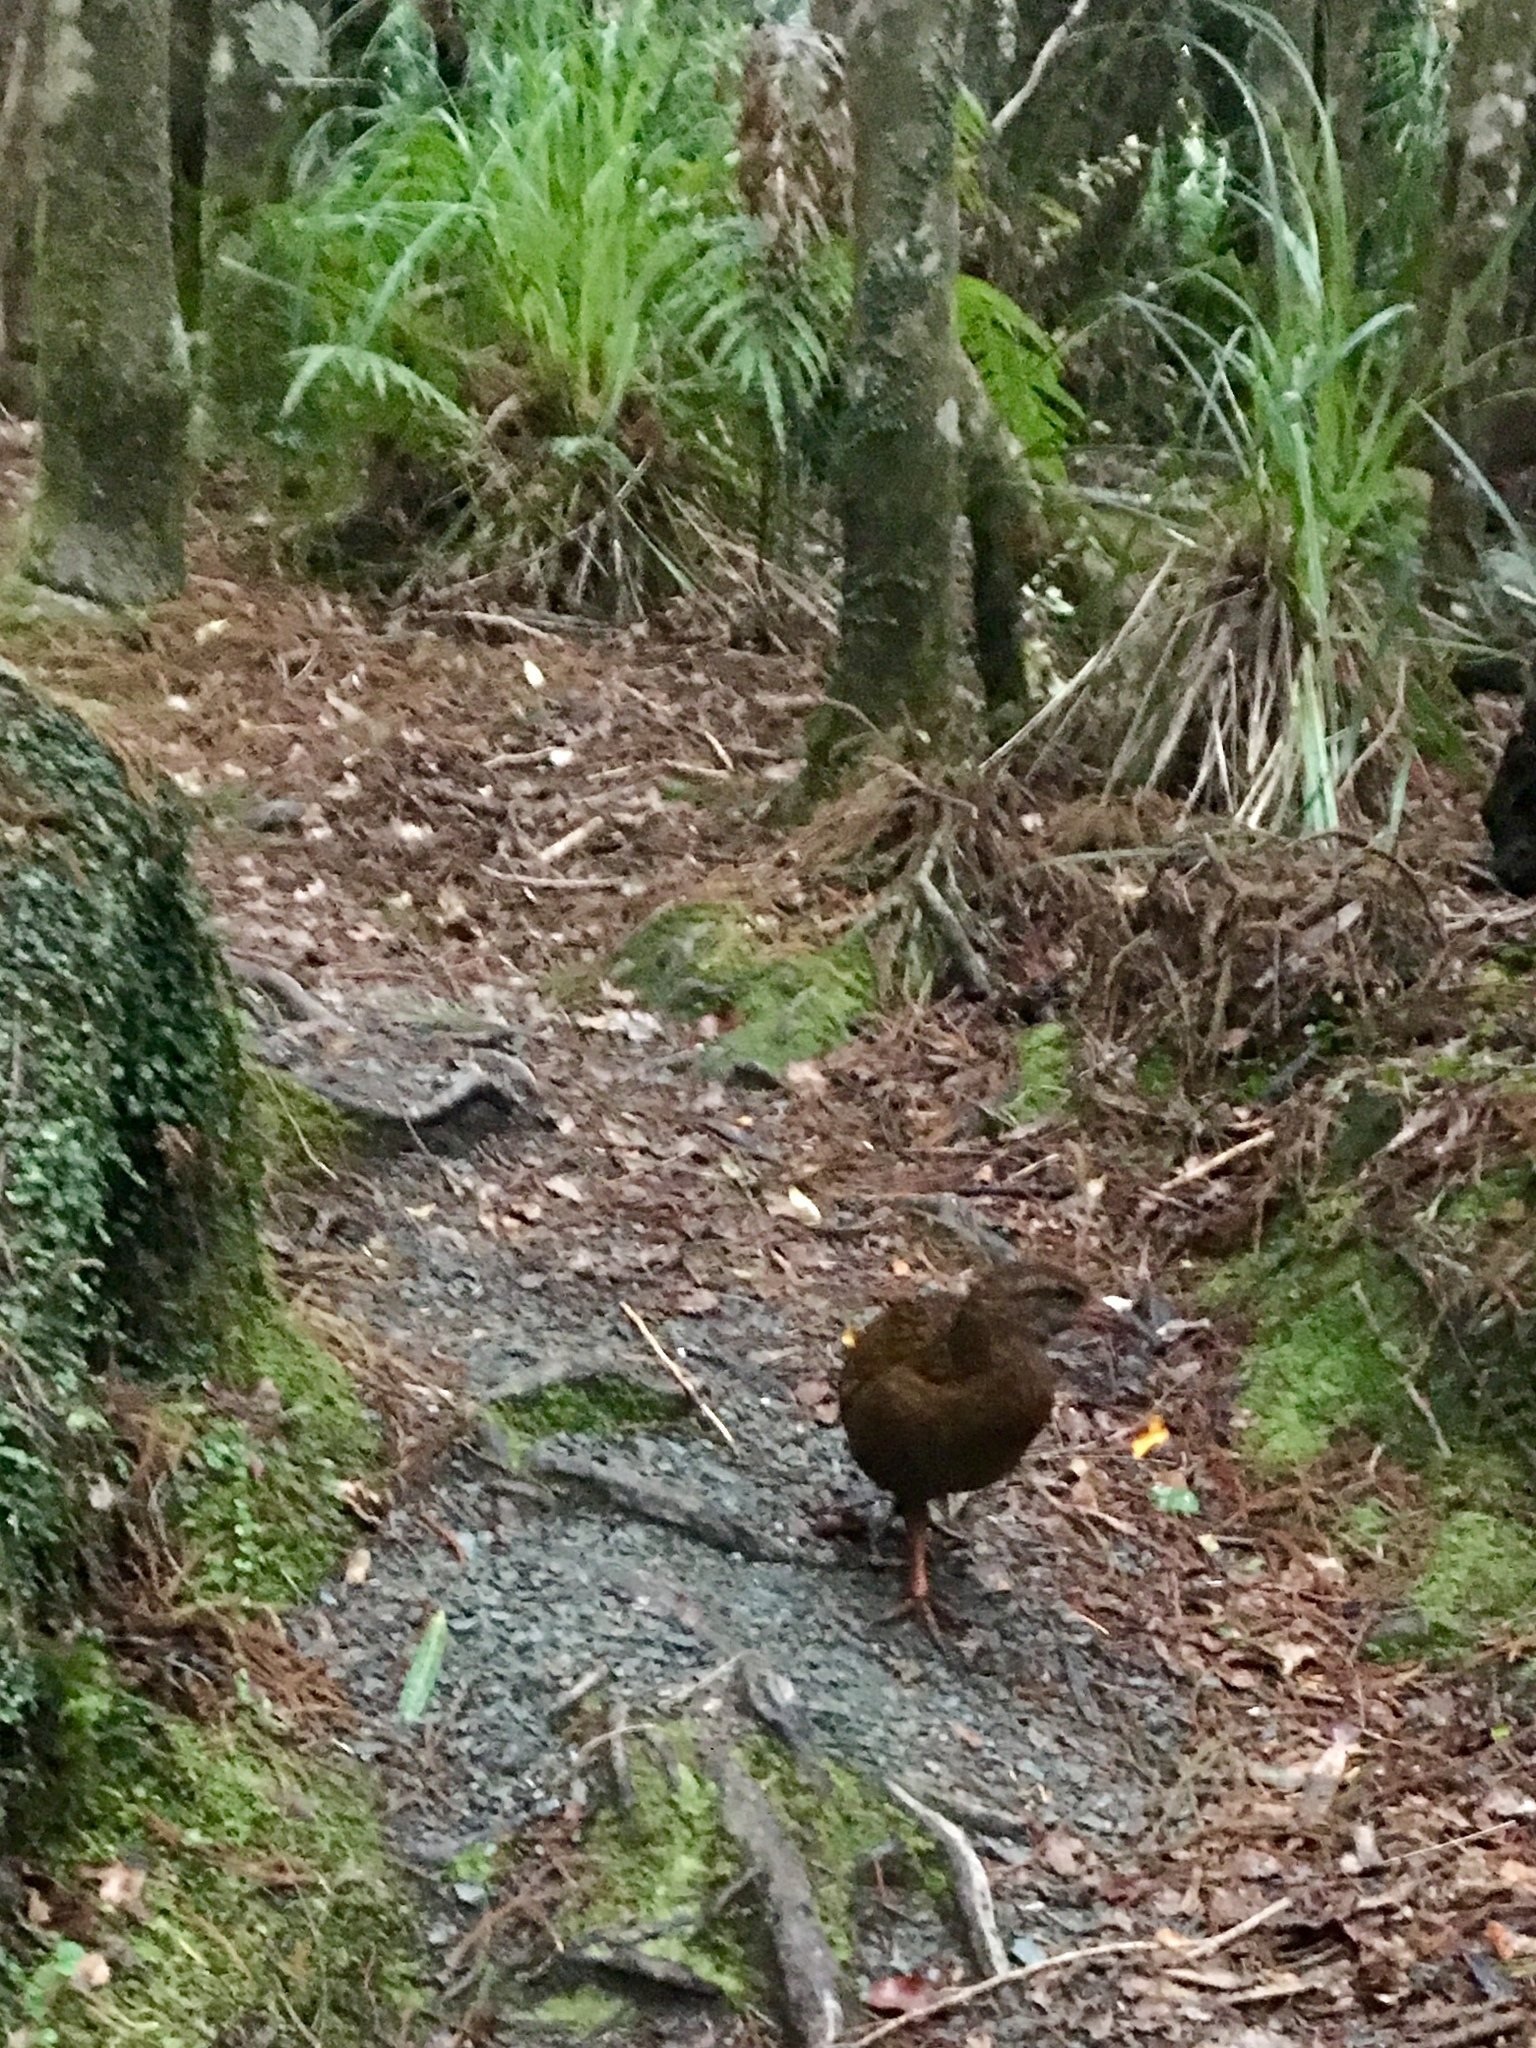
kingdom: Animalia
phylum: Chordata
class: Aves
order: Gruiformes
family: Rallidae
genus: Gallirallus
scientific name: Gallirallus australis
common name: Weka
